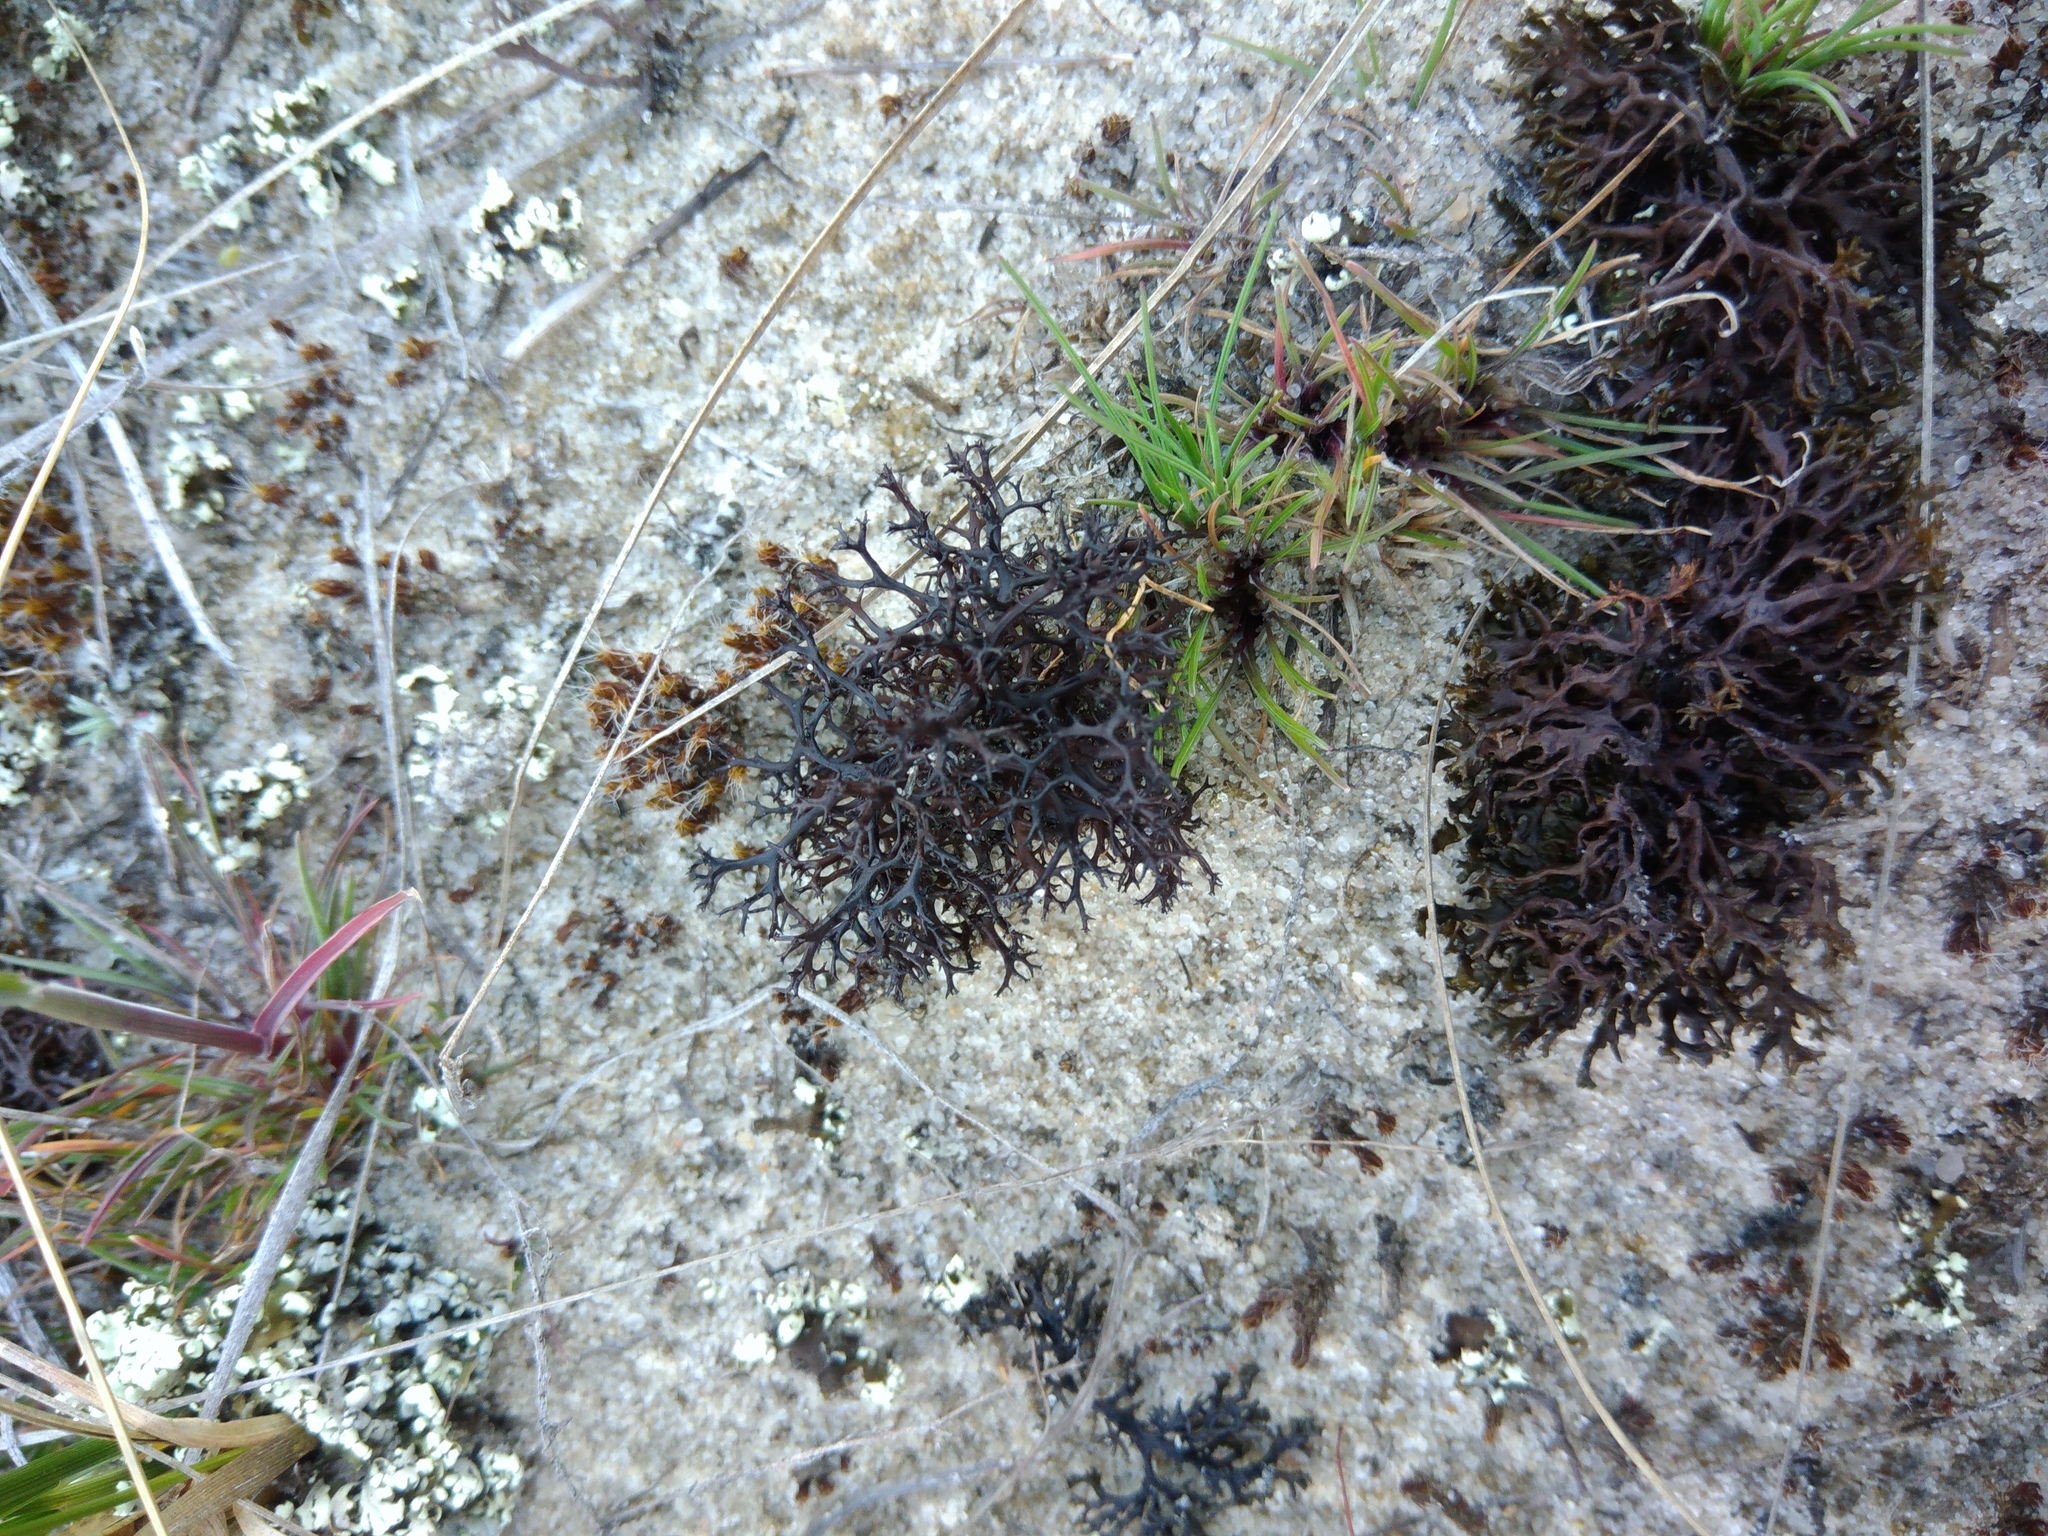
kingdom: Fungi
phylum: Ascomycota
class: Lecanoromycetes
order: Lecanorales
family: Parmeliaceae
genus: Cetraria
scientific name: Cetraria aculeata
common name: Spiny heath lichen
